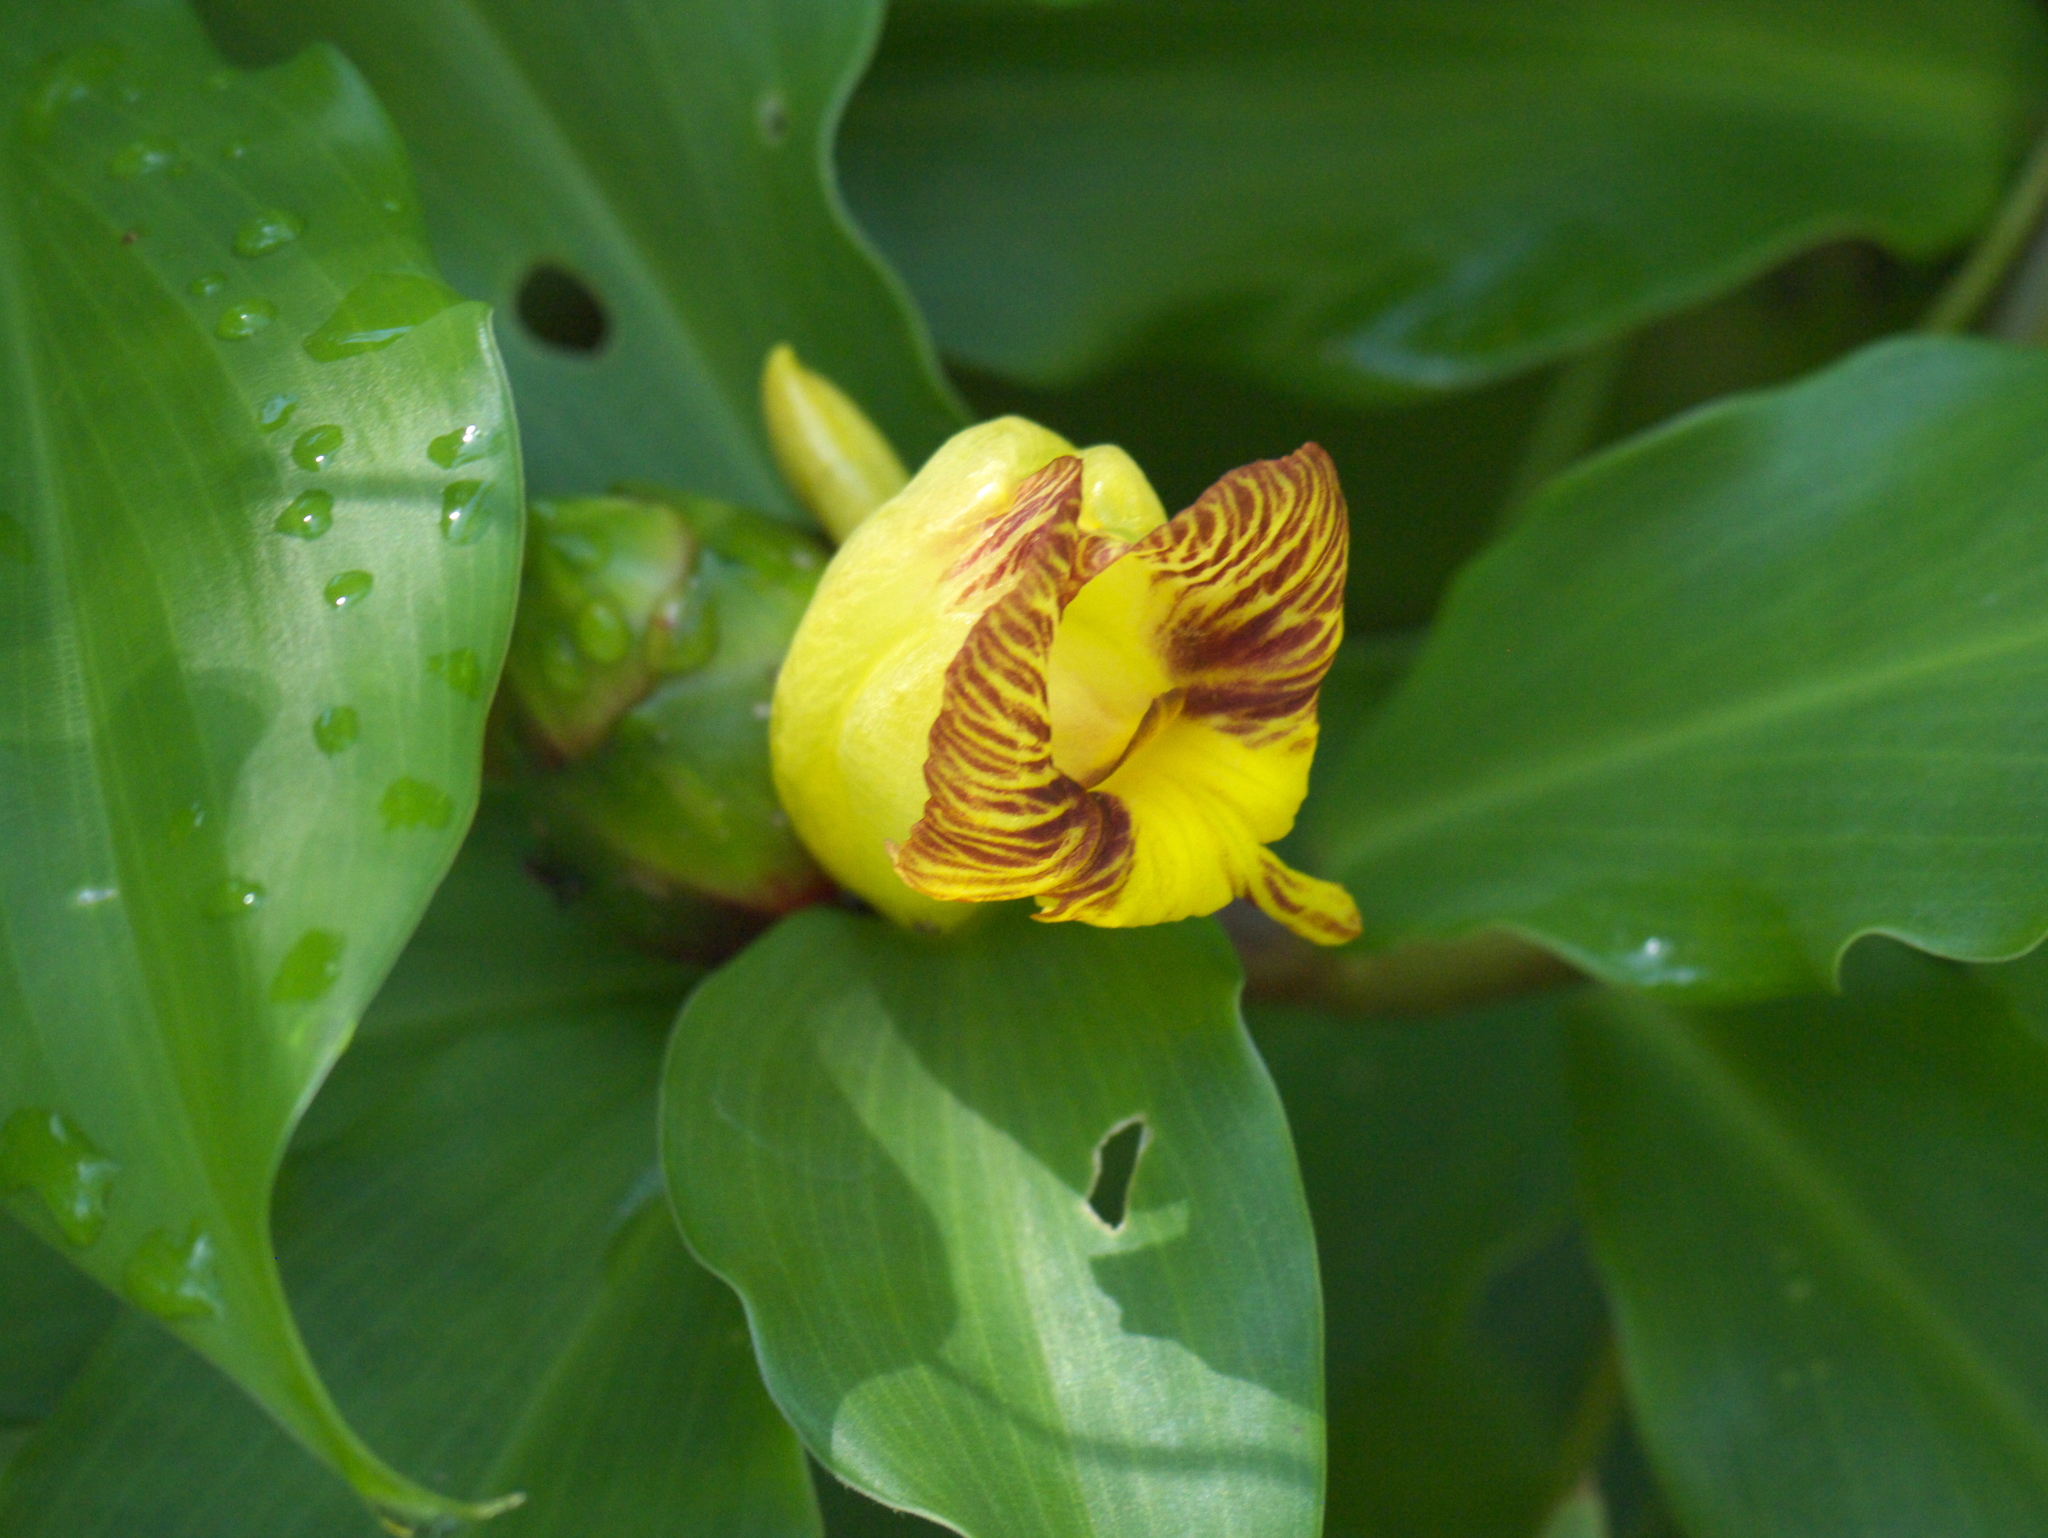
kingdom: Plantae
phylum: Tracheophyta
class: Liliopsida
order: Zingiberales
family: Costaceae
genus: Costus
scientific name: Costus pictus
